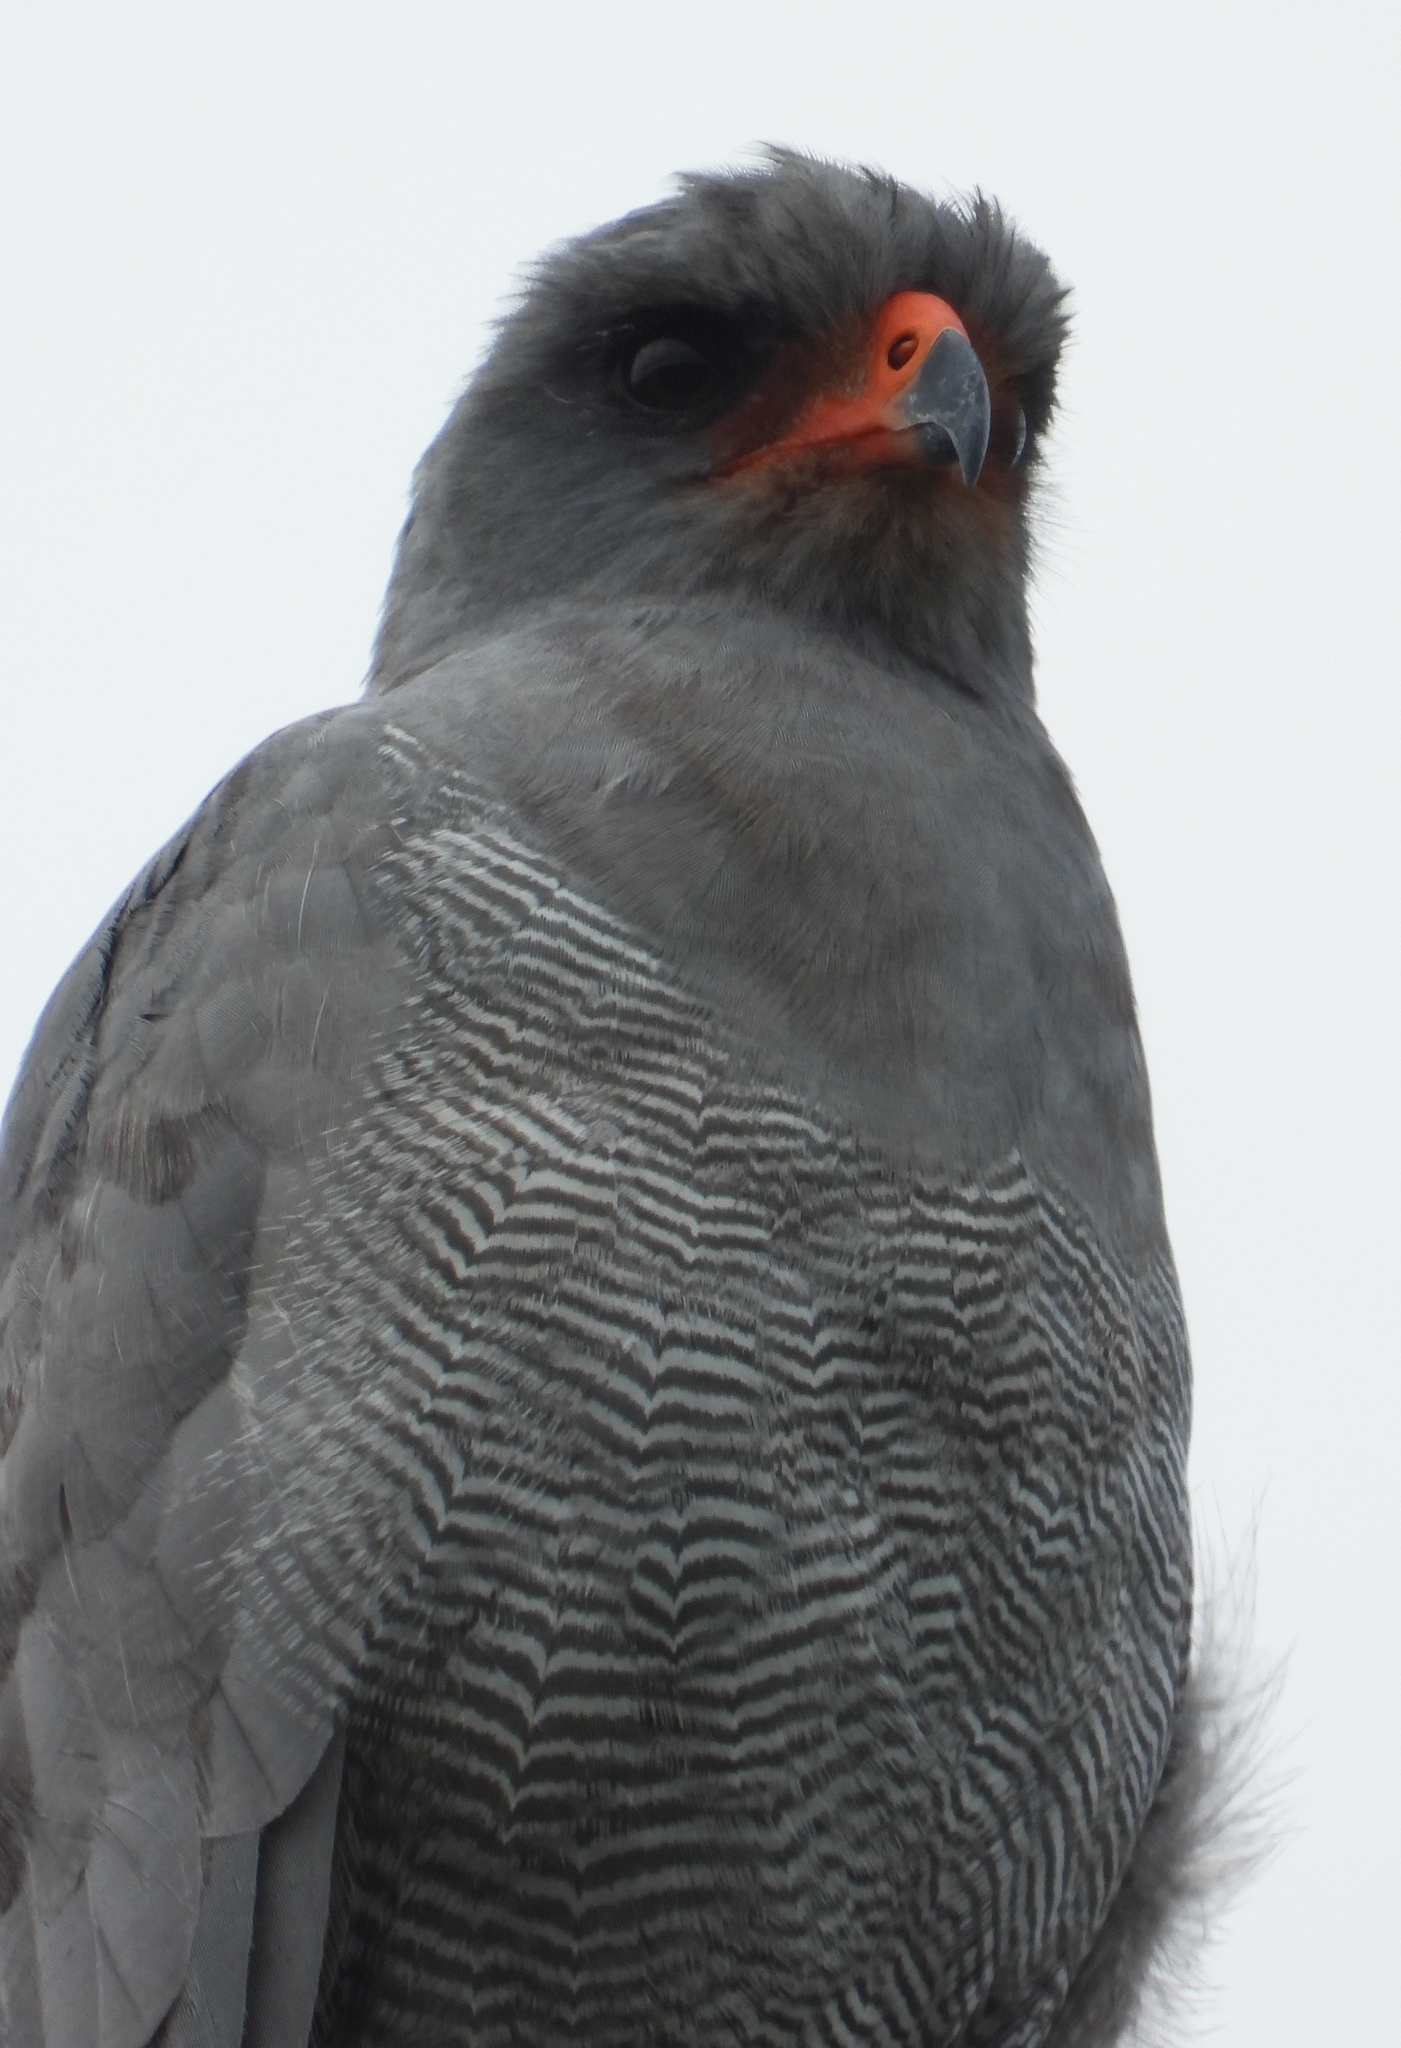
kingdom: Animalia
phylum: Chordata
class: Aves
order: Accipitriformes
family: Accipitridae
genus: Melierax
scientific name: Melierax metabates
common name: Dark chanting-goshawk
